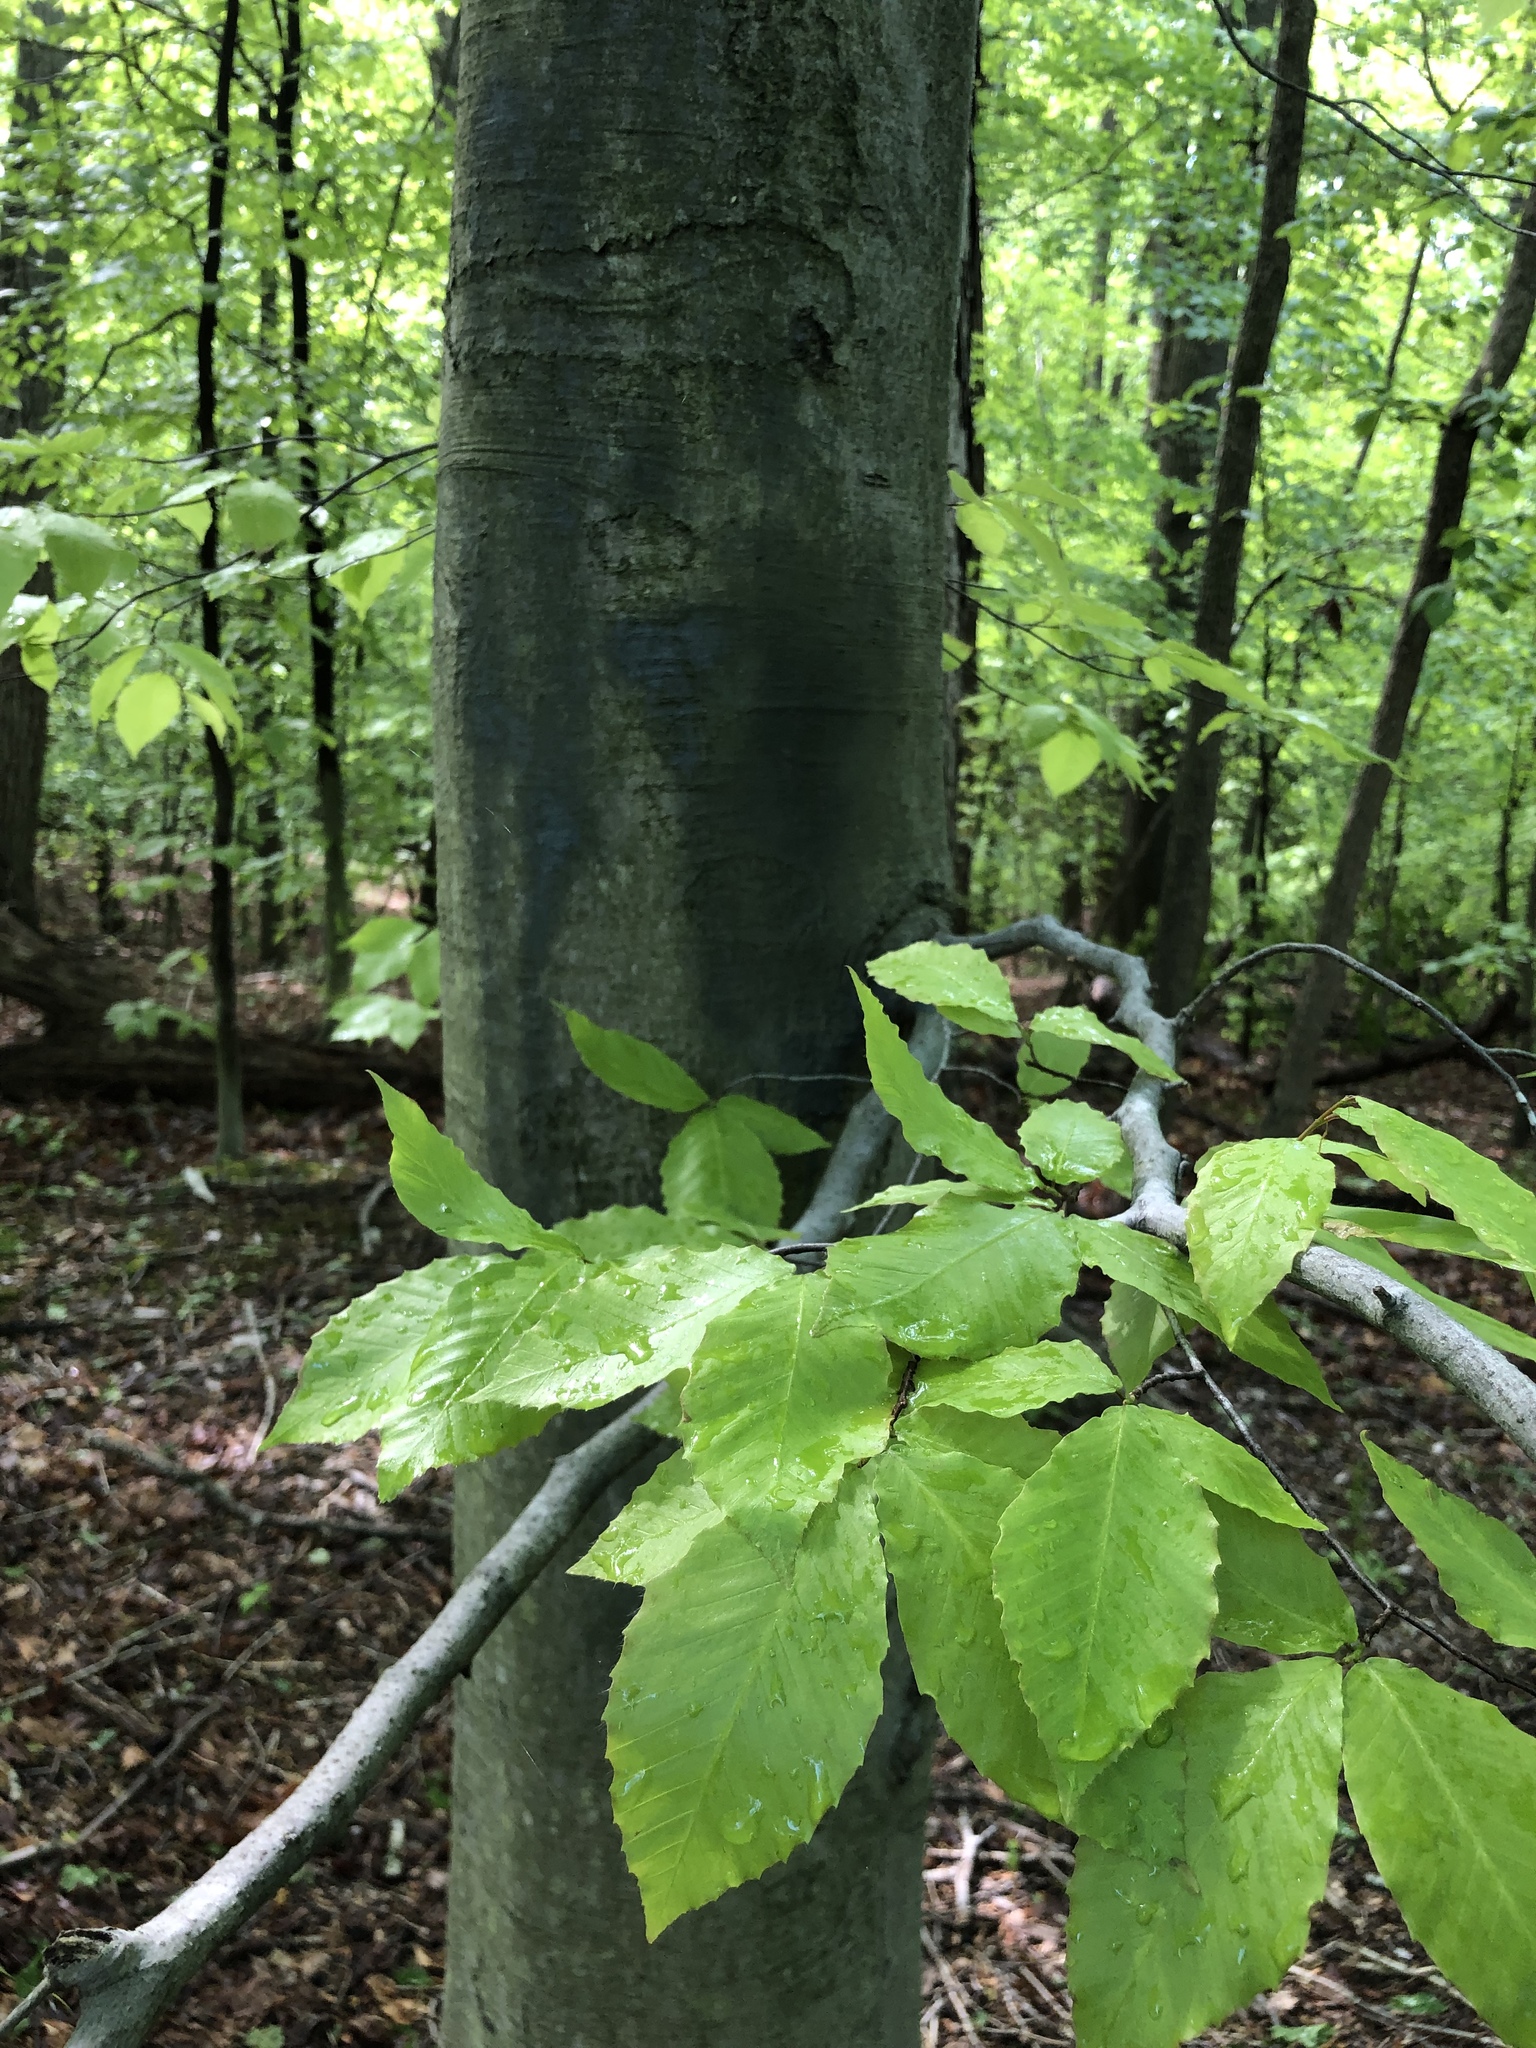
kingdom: Plantae
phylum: Tracheophyta
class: Magnoliopsida
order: Fagales
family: Fagaceae
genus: Fagus
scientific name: Fagus grandifolia
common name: American beech
